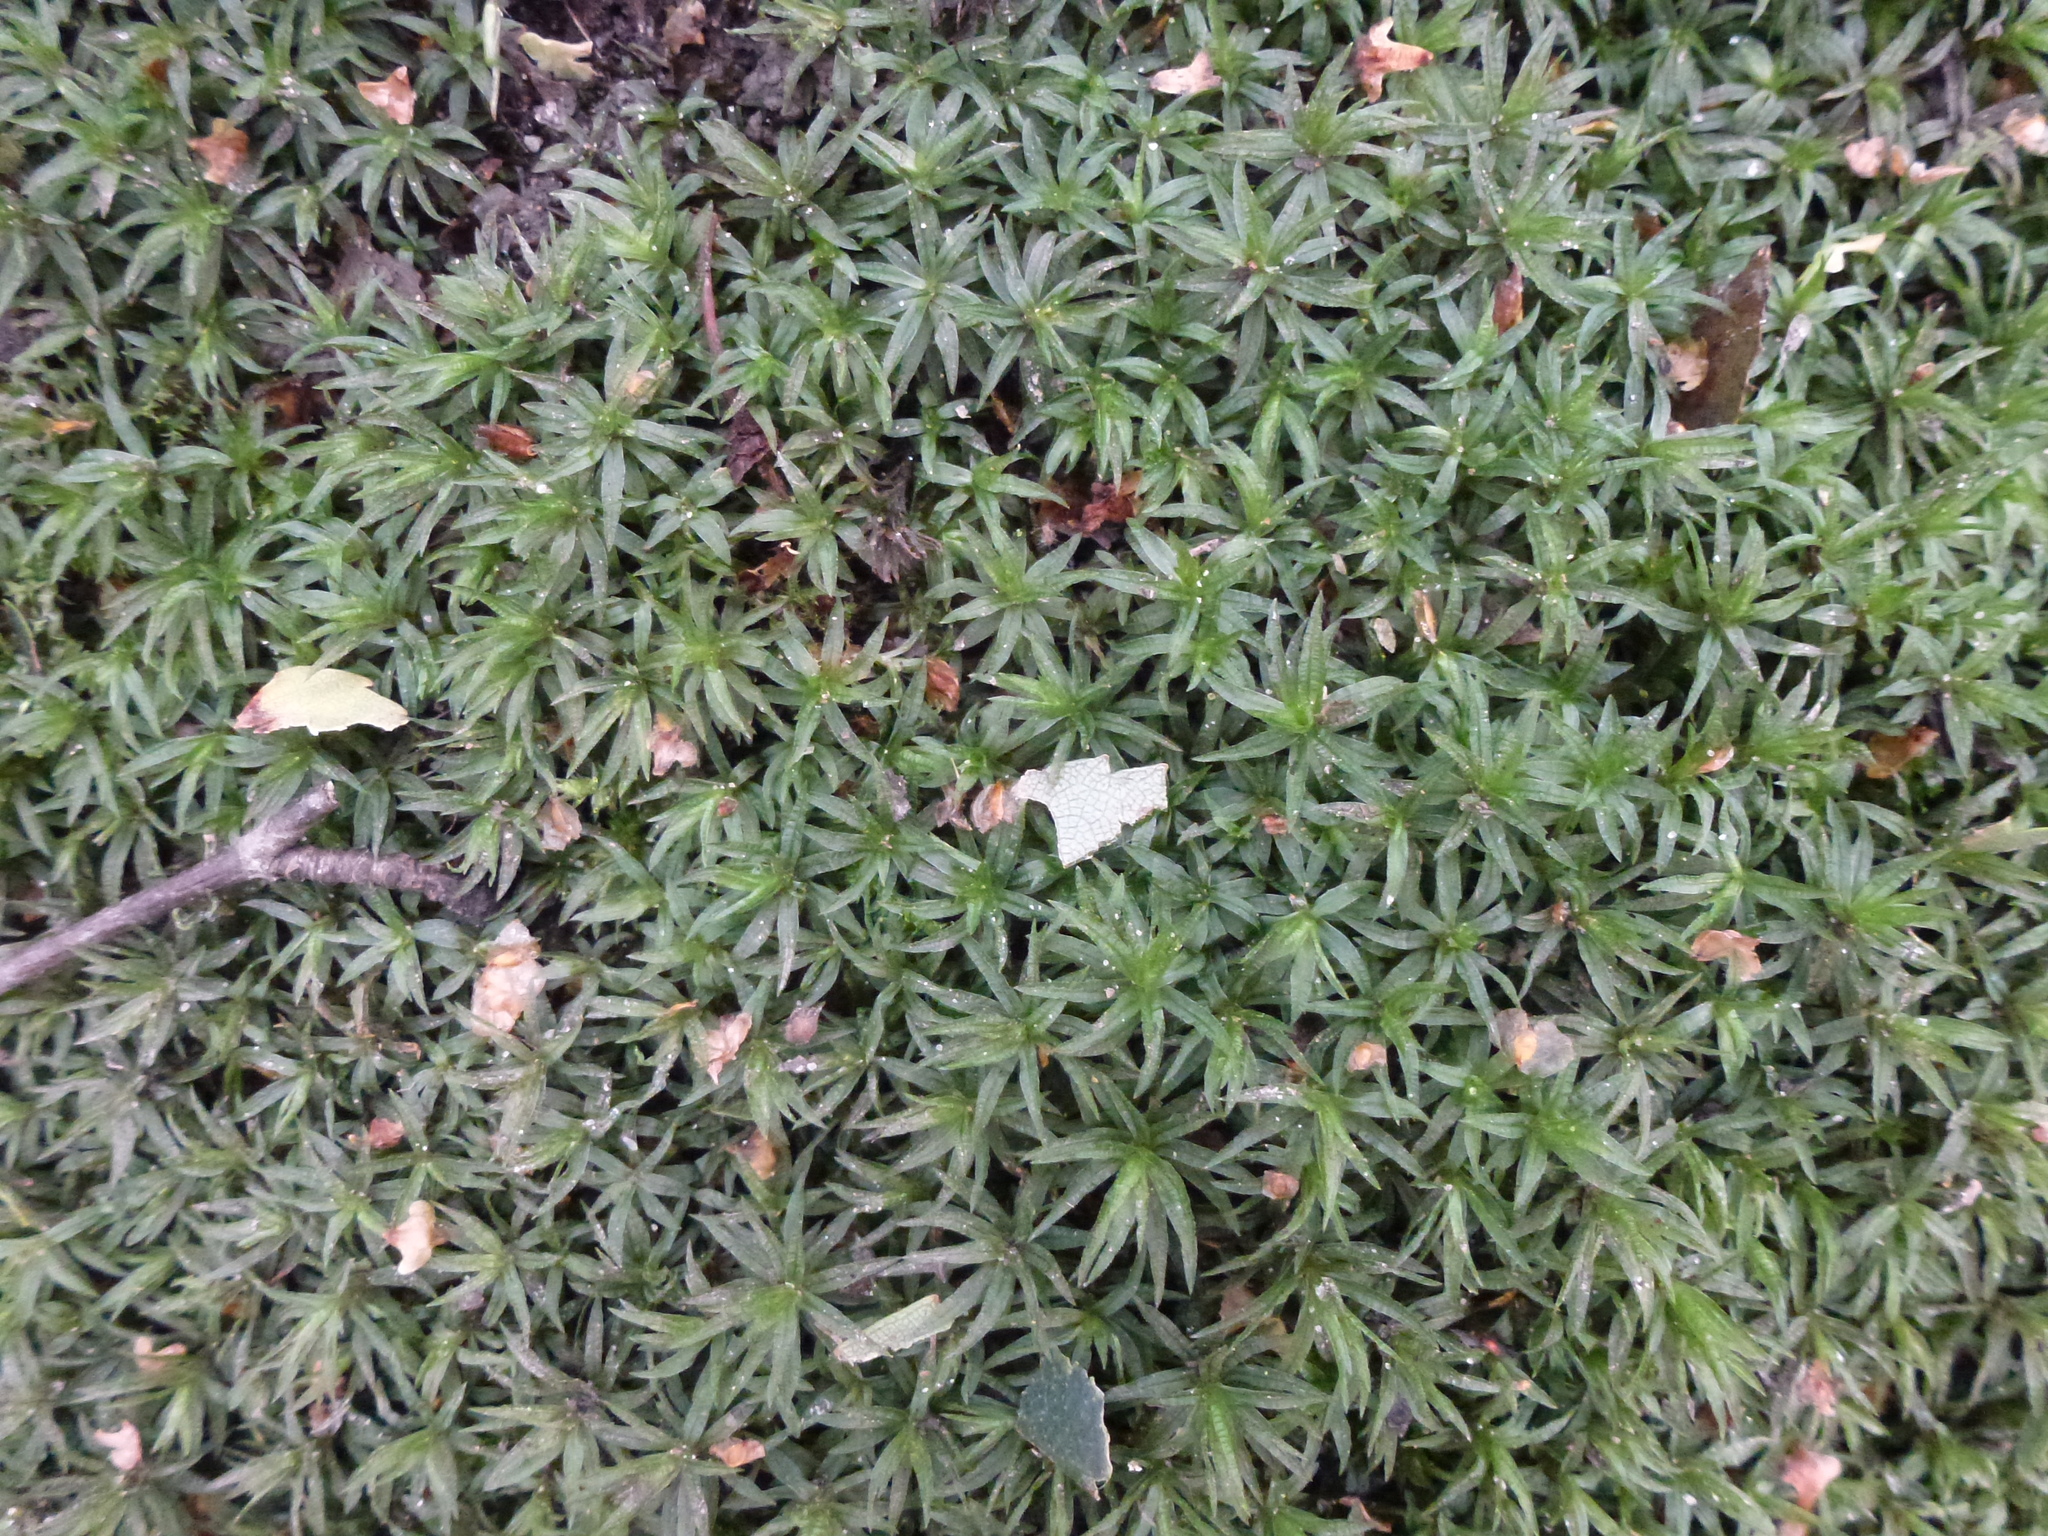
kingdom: Plantae
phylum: Bryophyta
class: Polytrichopsida
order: Polytrichales
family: Polytrichaceae
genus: Atrichum
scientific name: Atrichum undulatum
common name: Common smoothcap
